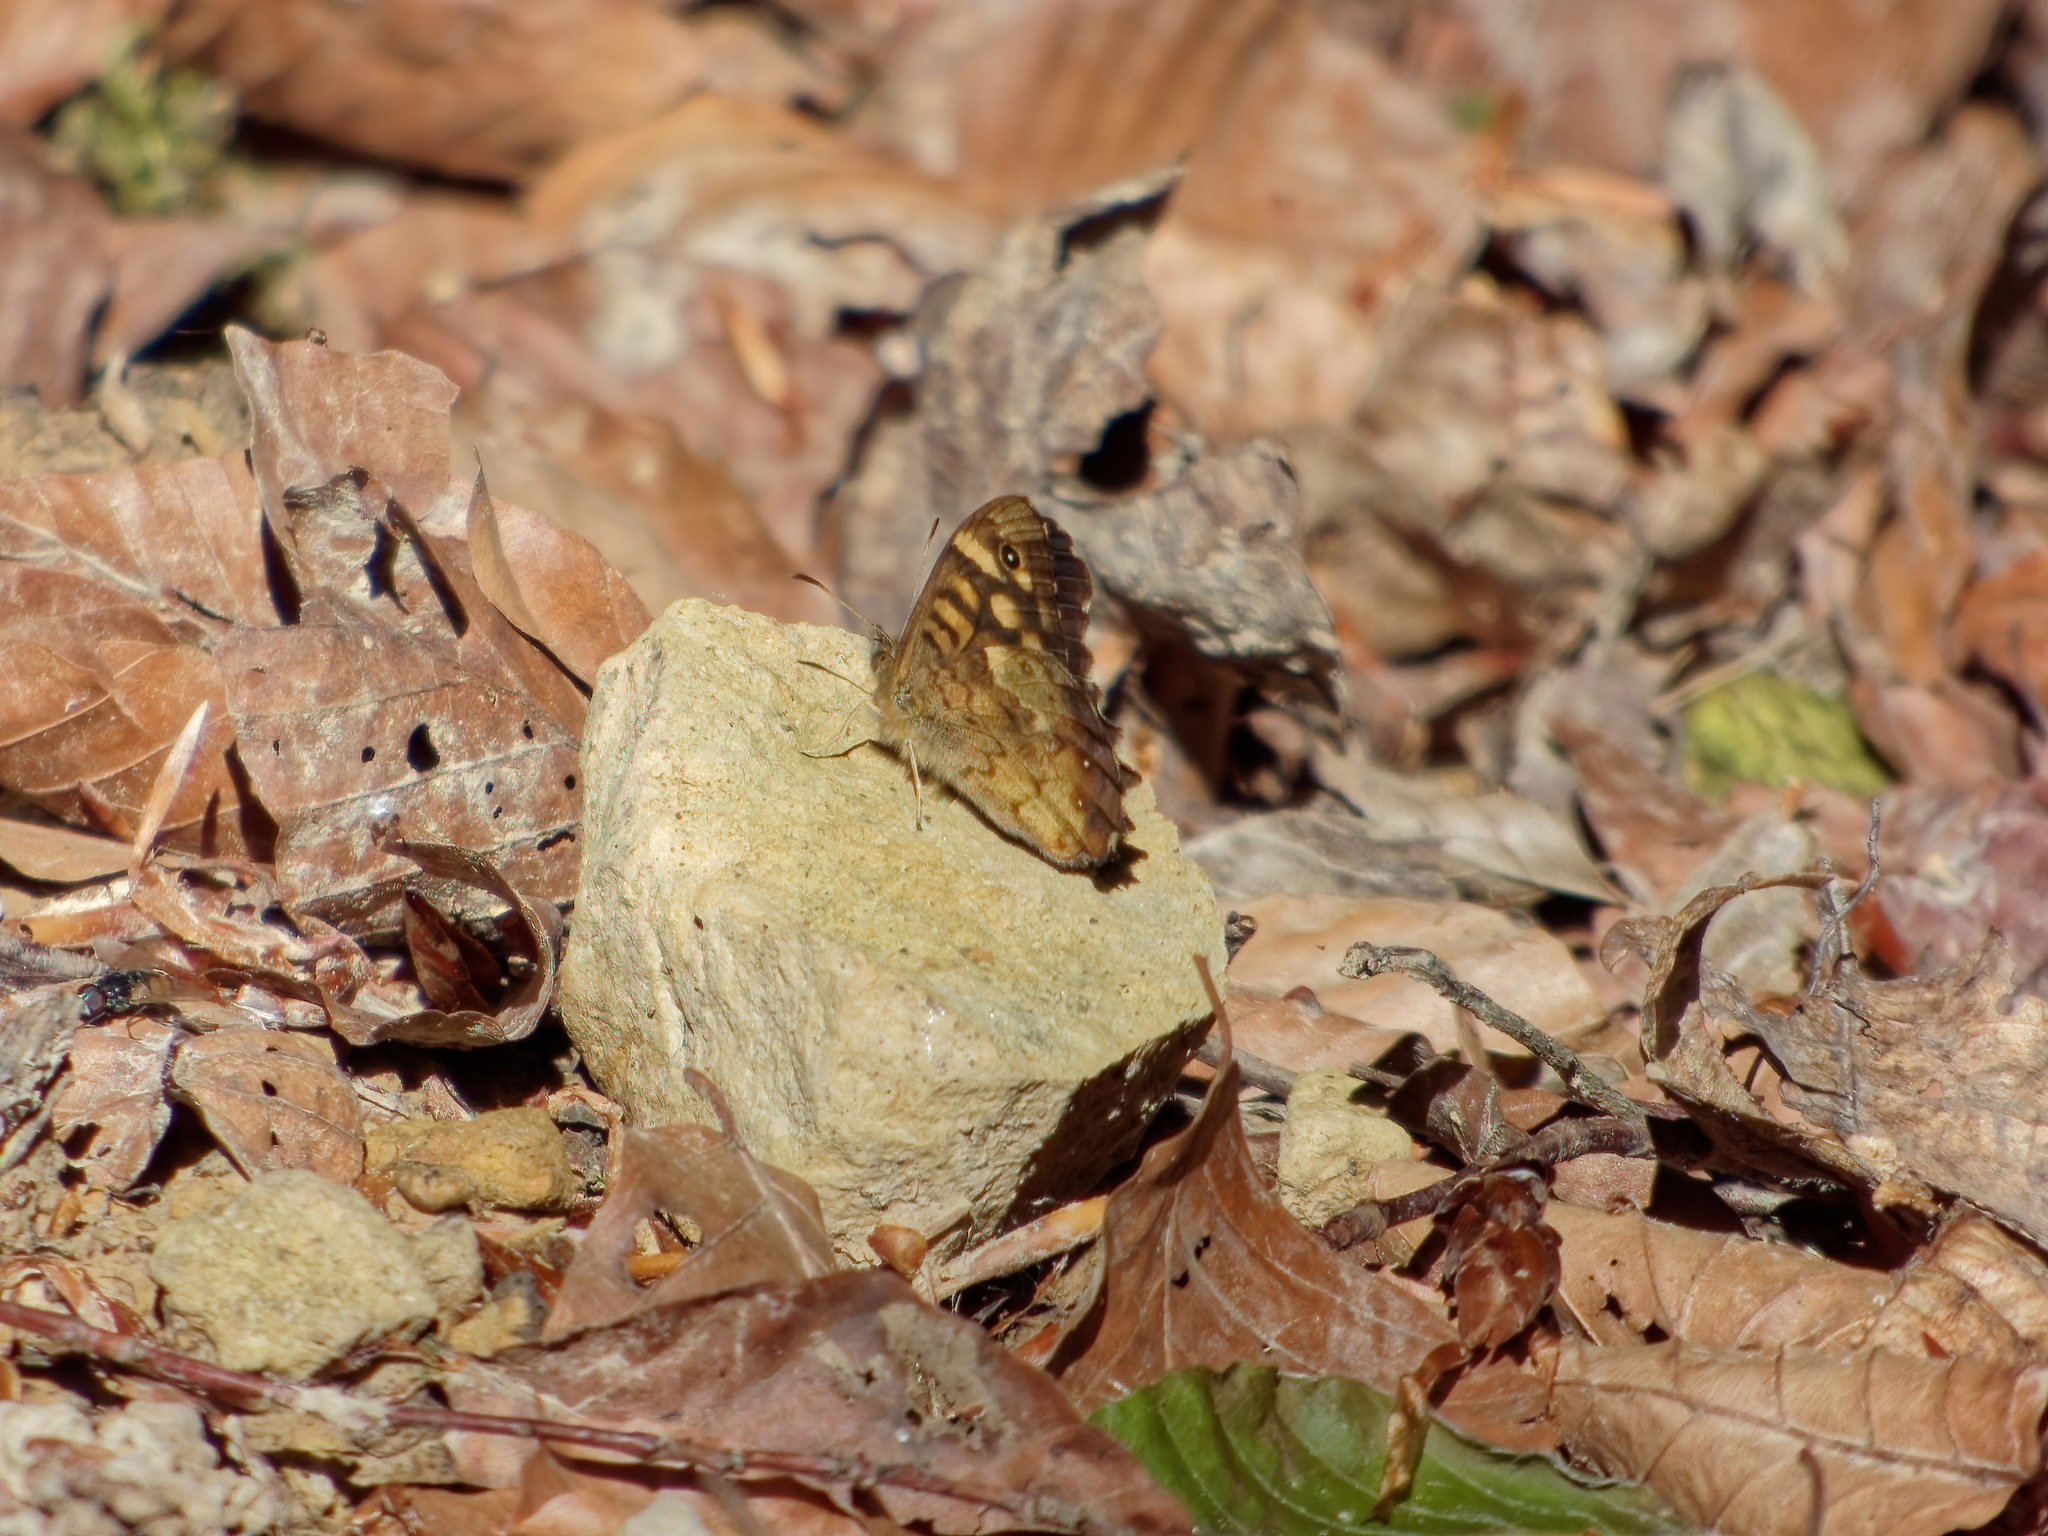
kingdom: Animalia
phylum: Arthropoda
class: Insecta
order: Lepidoptera
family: Nymphalidae
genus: Pararge
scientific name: Pararge aegeria
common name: Speckled wood
